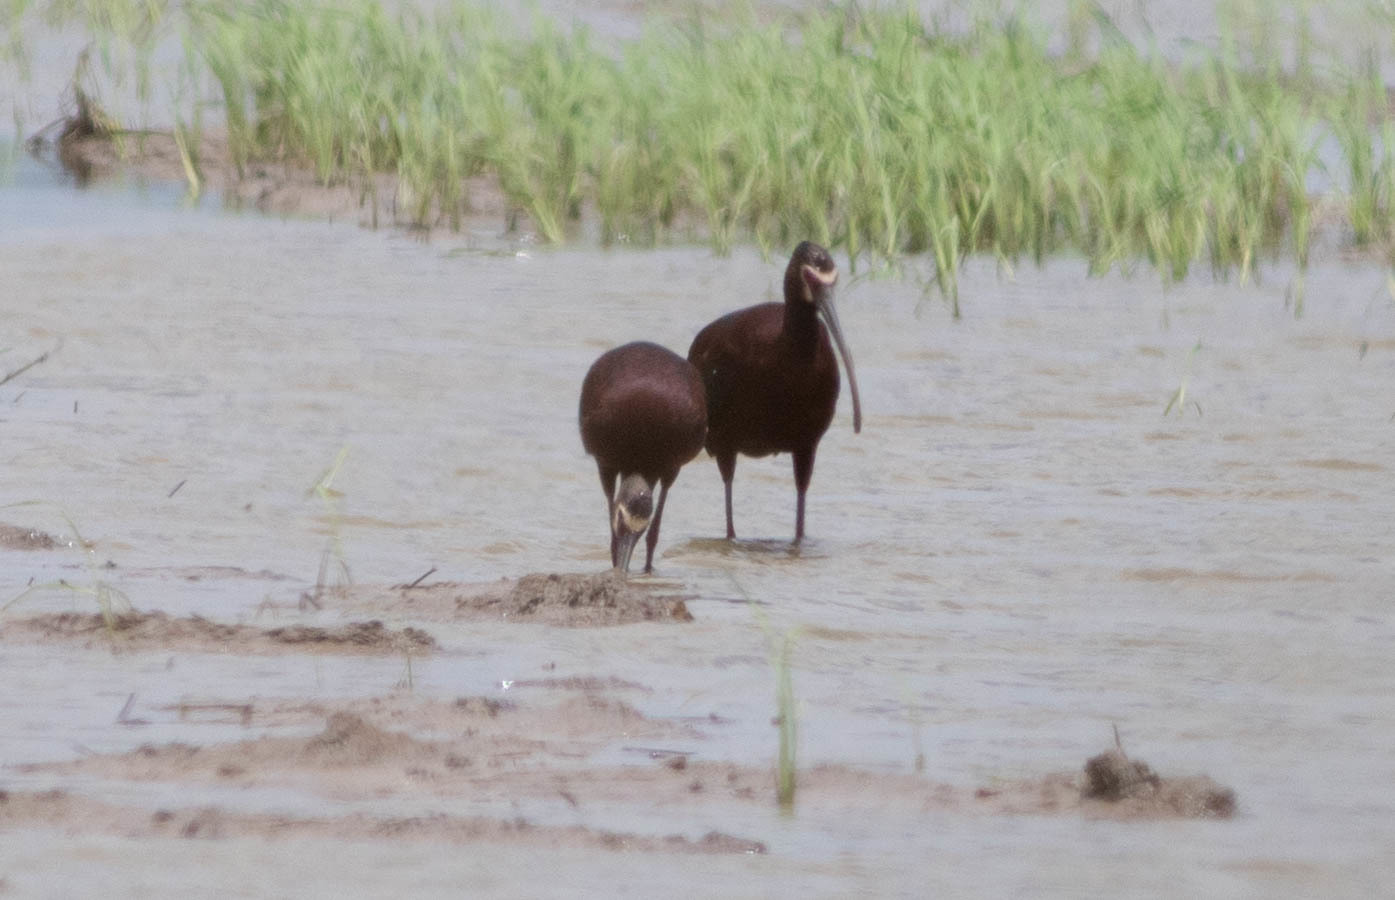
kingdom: Animalia
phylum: Chordata
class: Aves
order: Pelecaniformes
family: Threskiornithidae
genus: Plegadis
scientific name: Plegadis chihi
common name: White-faced ibis
